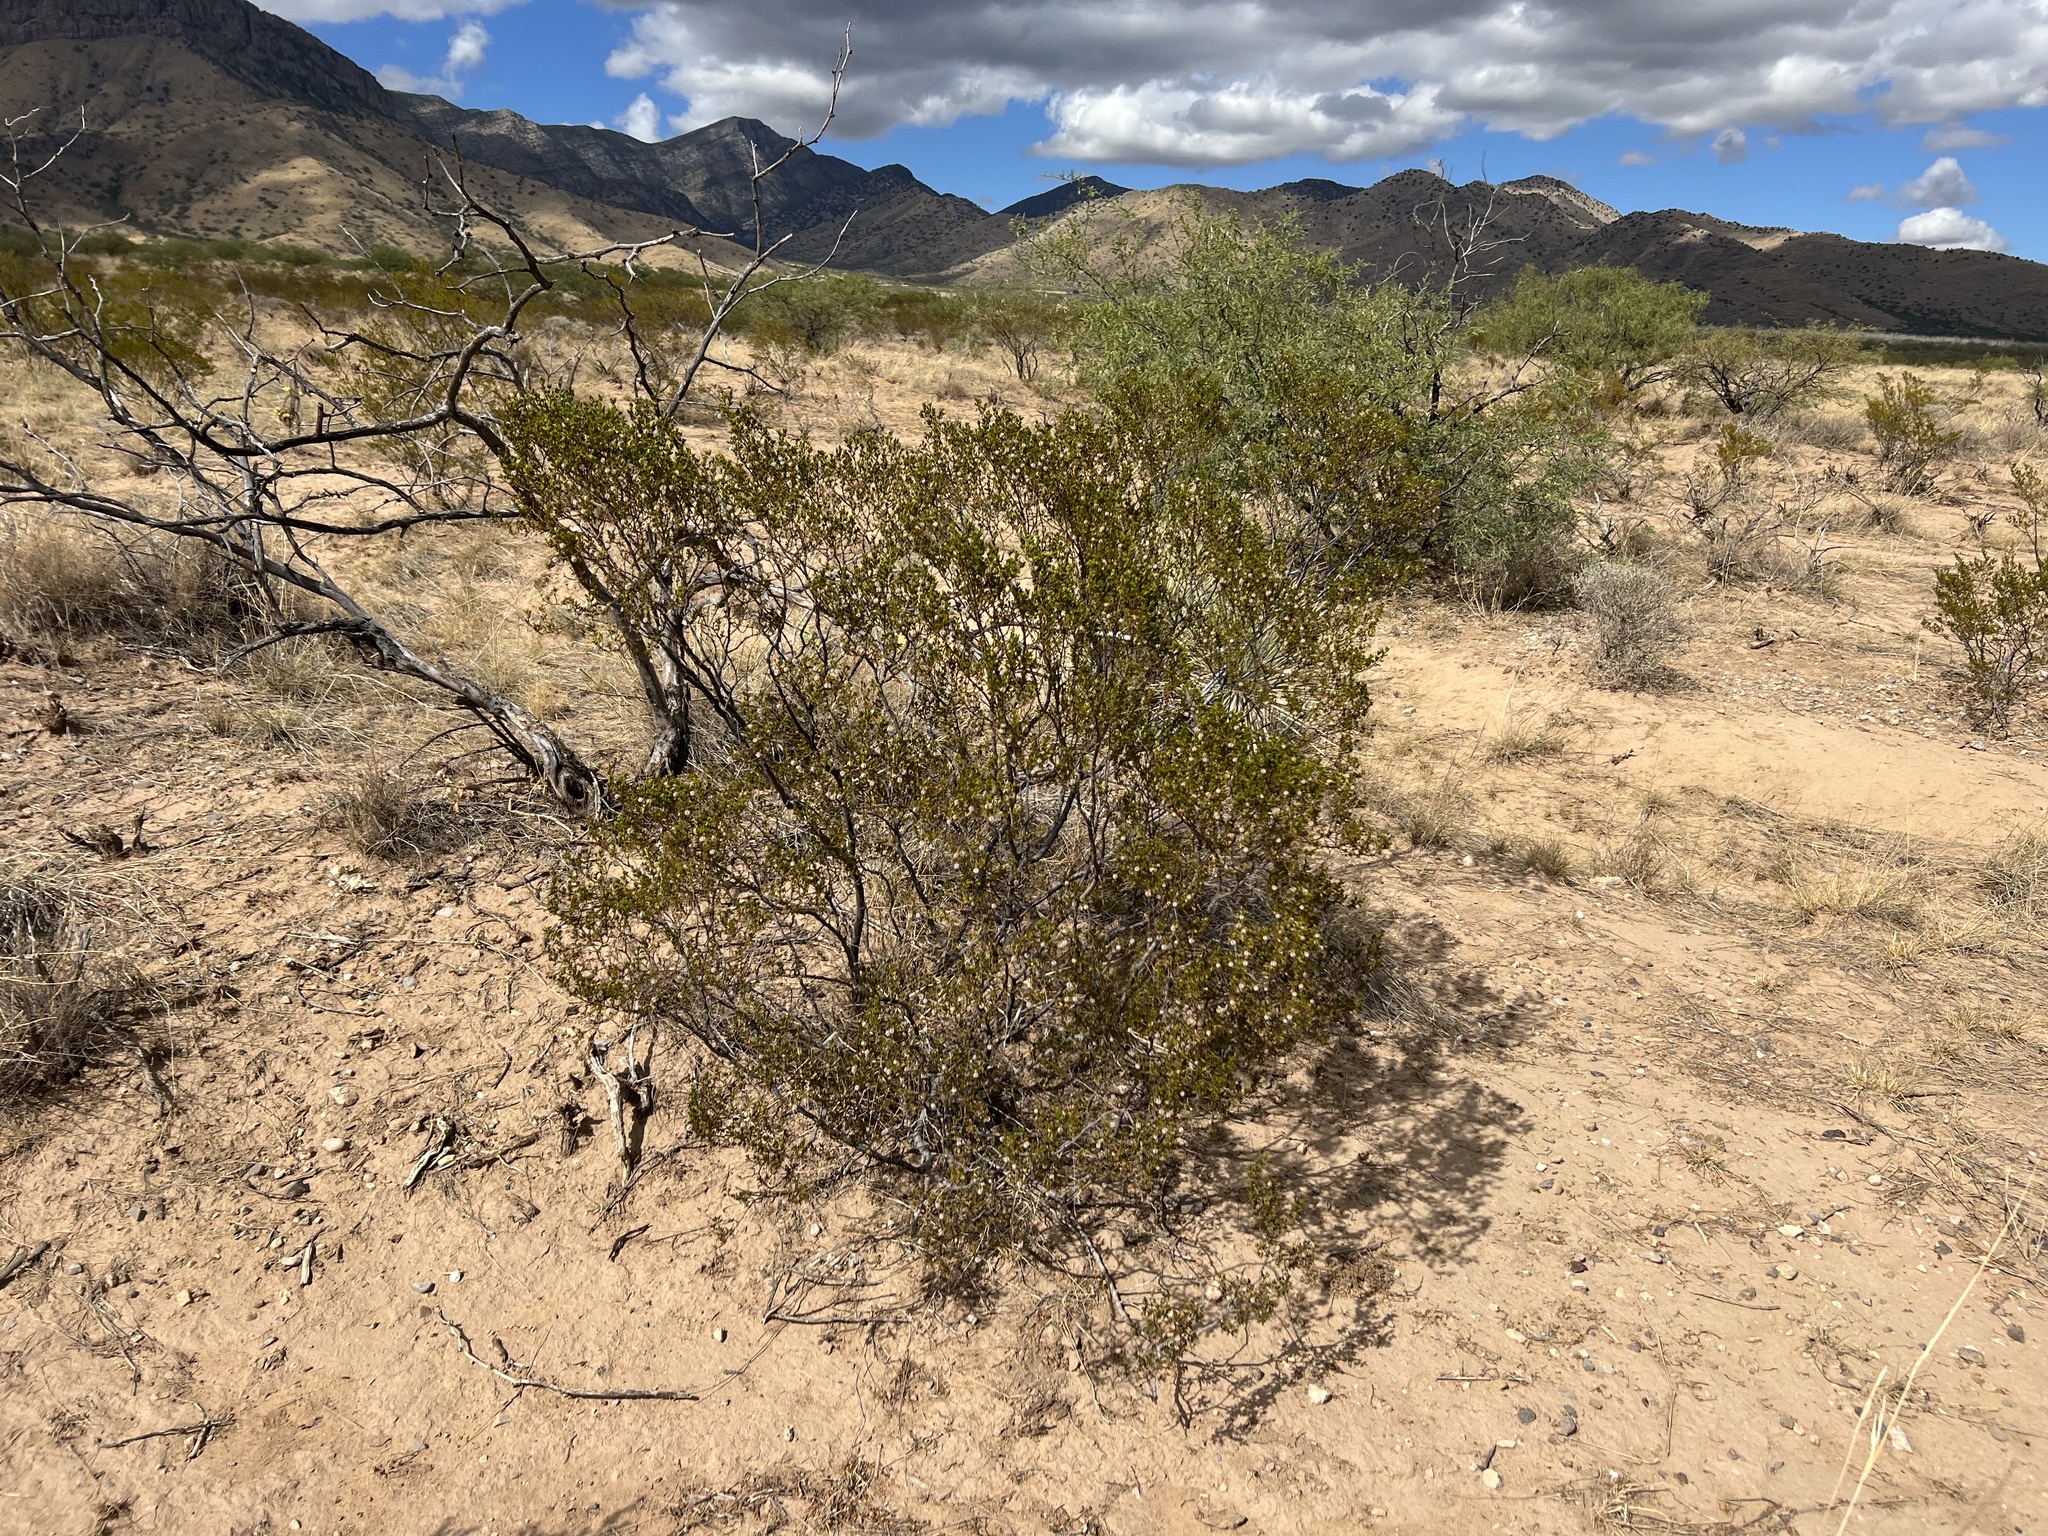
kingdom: Plantae
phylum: Tracheophyta
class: Magnoliopsida
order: Zygophyllales
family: Zygophyllaceae
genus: Larrea
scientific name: Larrea tridentata
